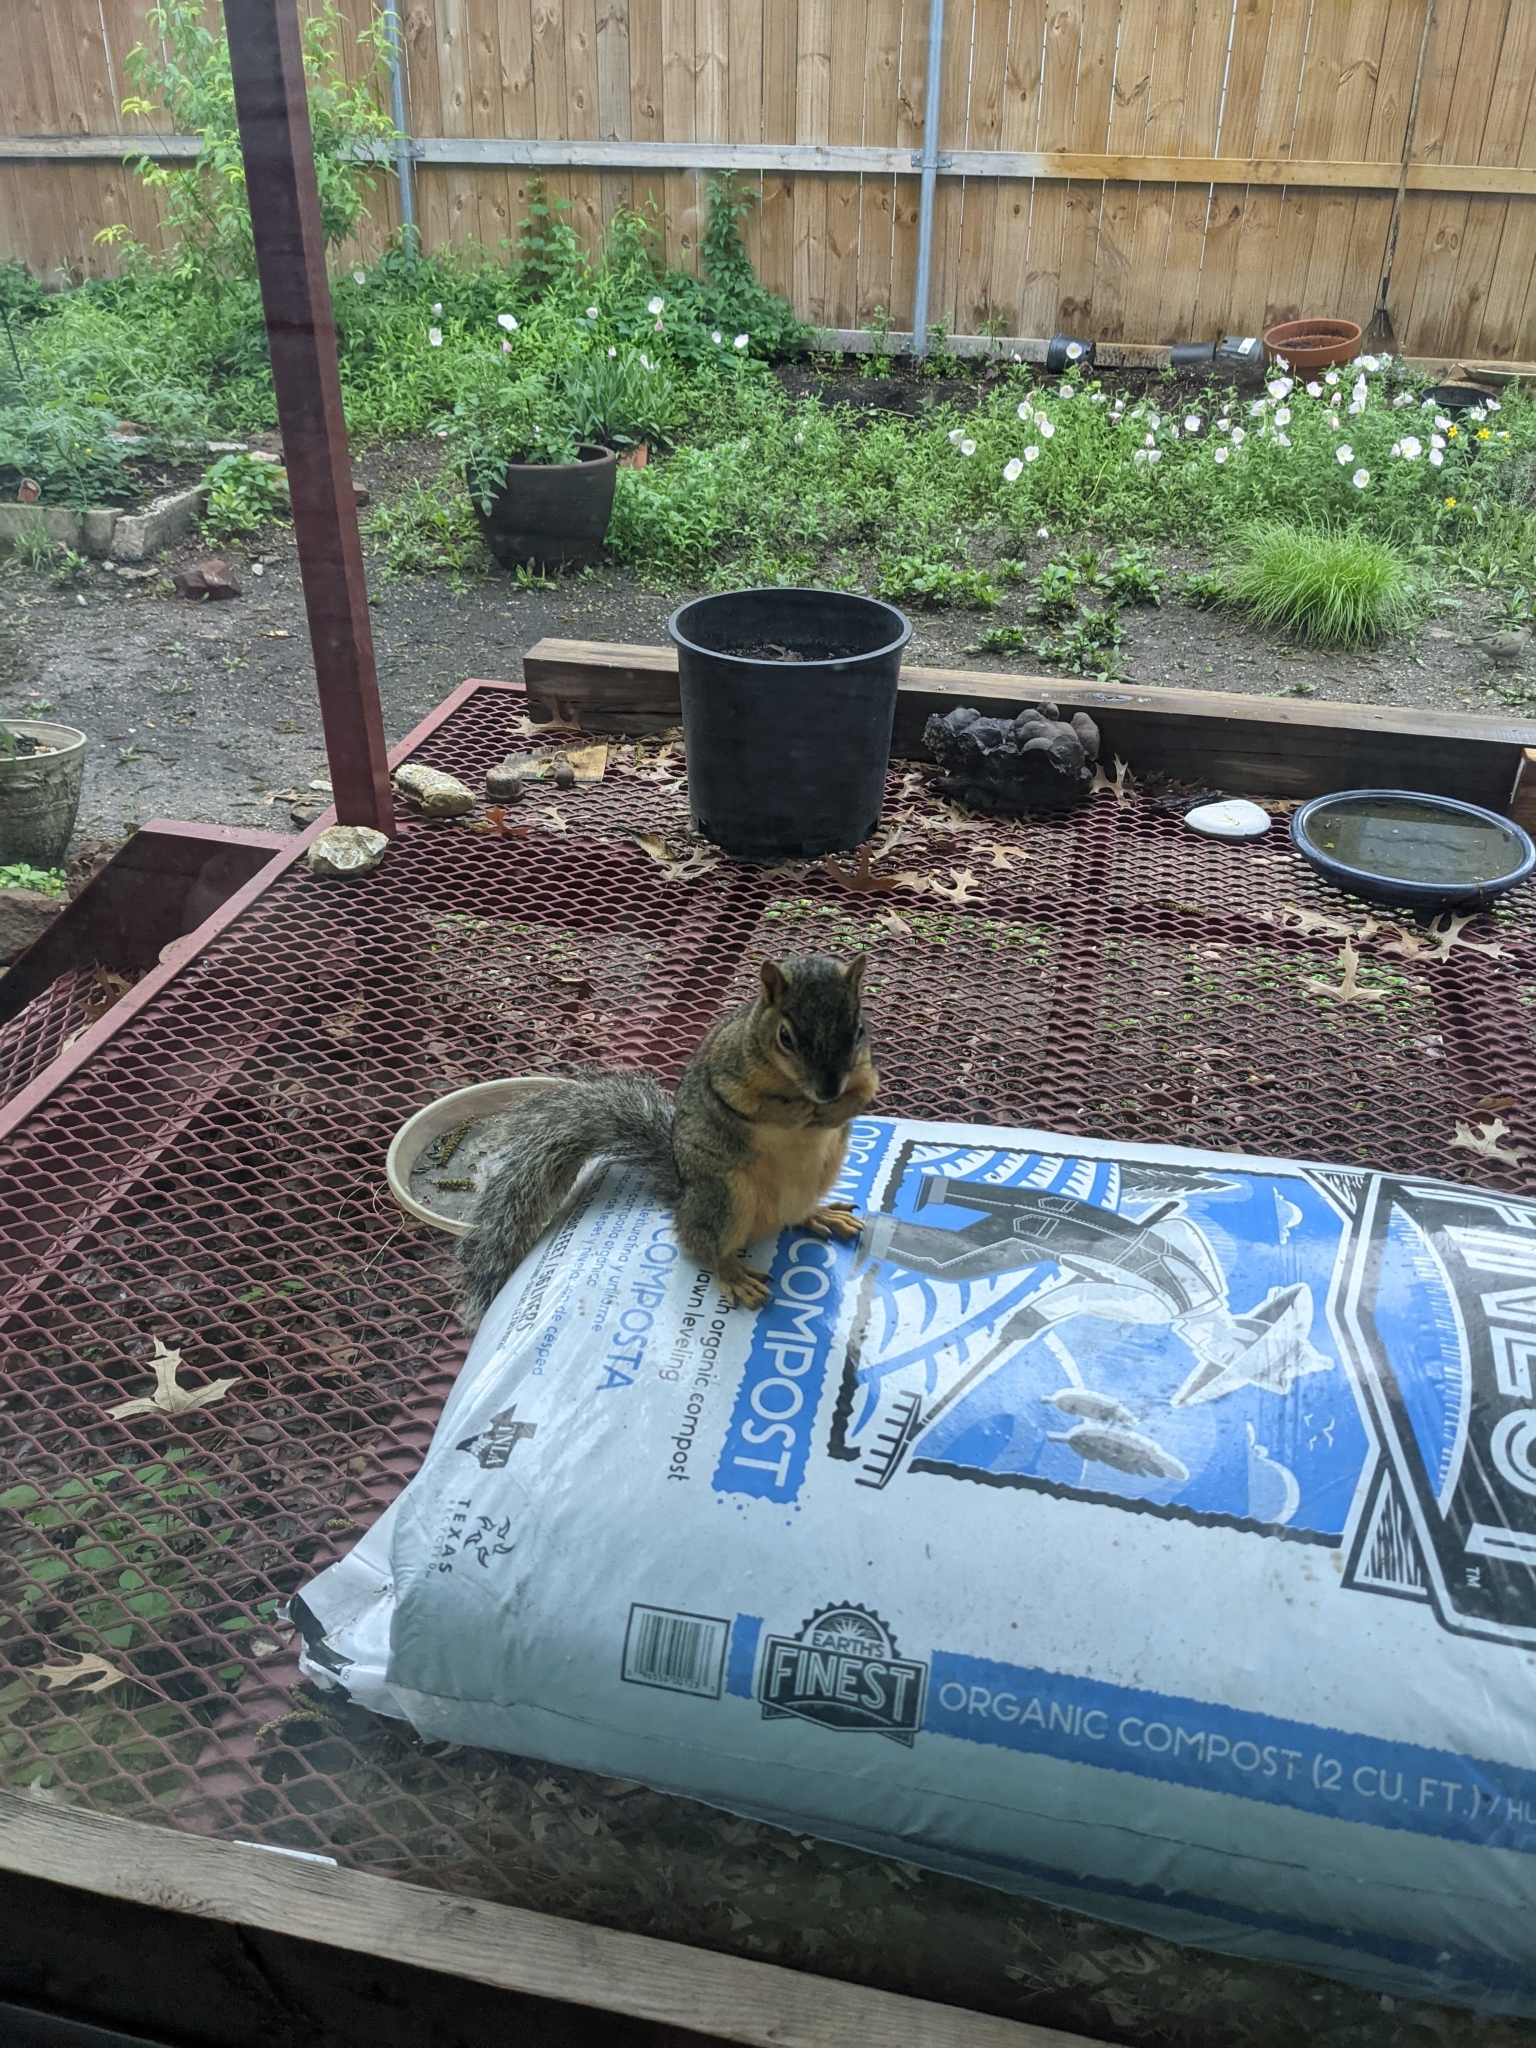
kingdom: Animalia
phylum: Chordata
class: Mammalia
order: Rodentia
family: Sciuridae
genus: Sciurus
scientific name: Sciurus niger
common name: Fox squirrel
